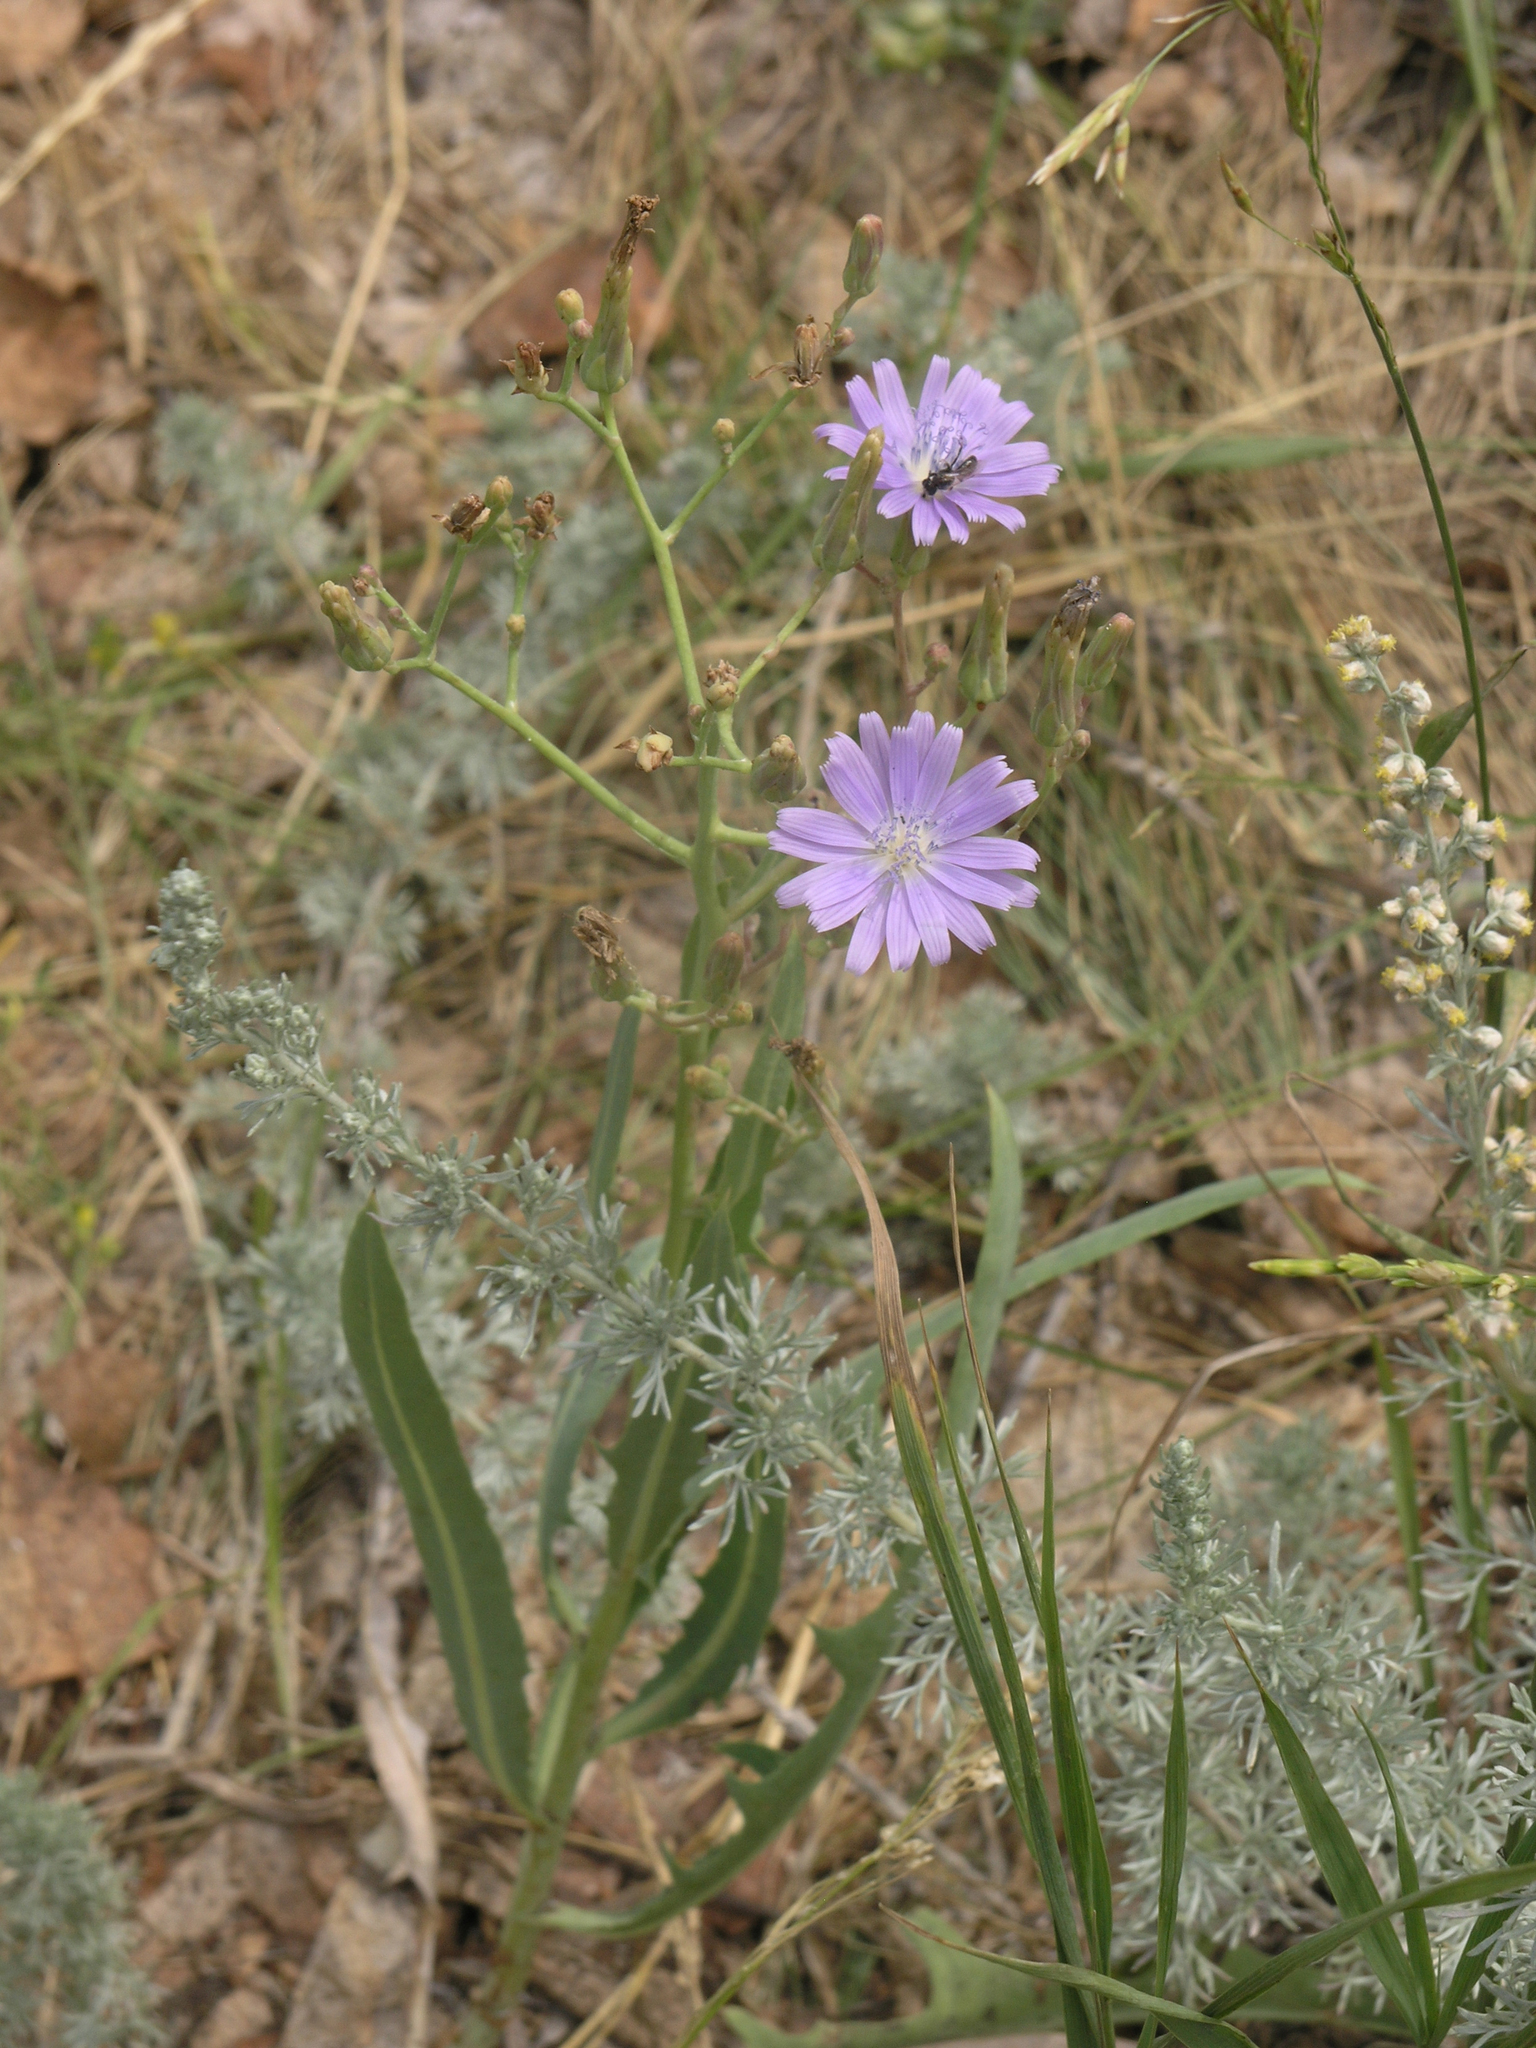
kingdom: Plantae
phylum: Tracheophyta
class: Magnoliopsida
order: Asterales
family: Asteraceae
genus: Lactuca
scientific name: Lactuca tatarica
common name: Blue lettuce
